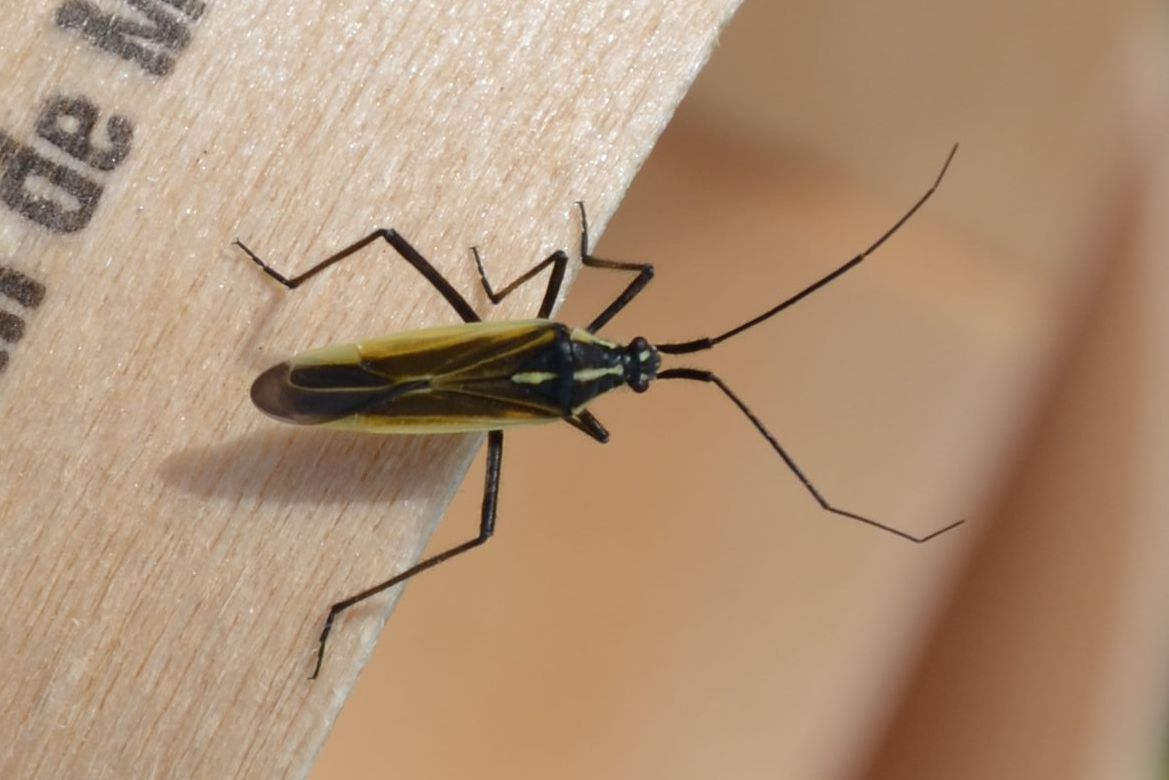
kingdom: Animalia
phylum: Arthropoda
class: Insecta
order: Hemiptera
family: Miridae
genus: Leptopterna
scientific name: Leptopterna dolabrata
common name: Meadow plant bug
